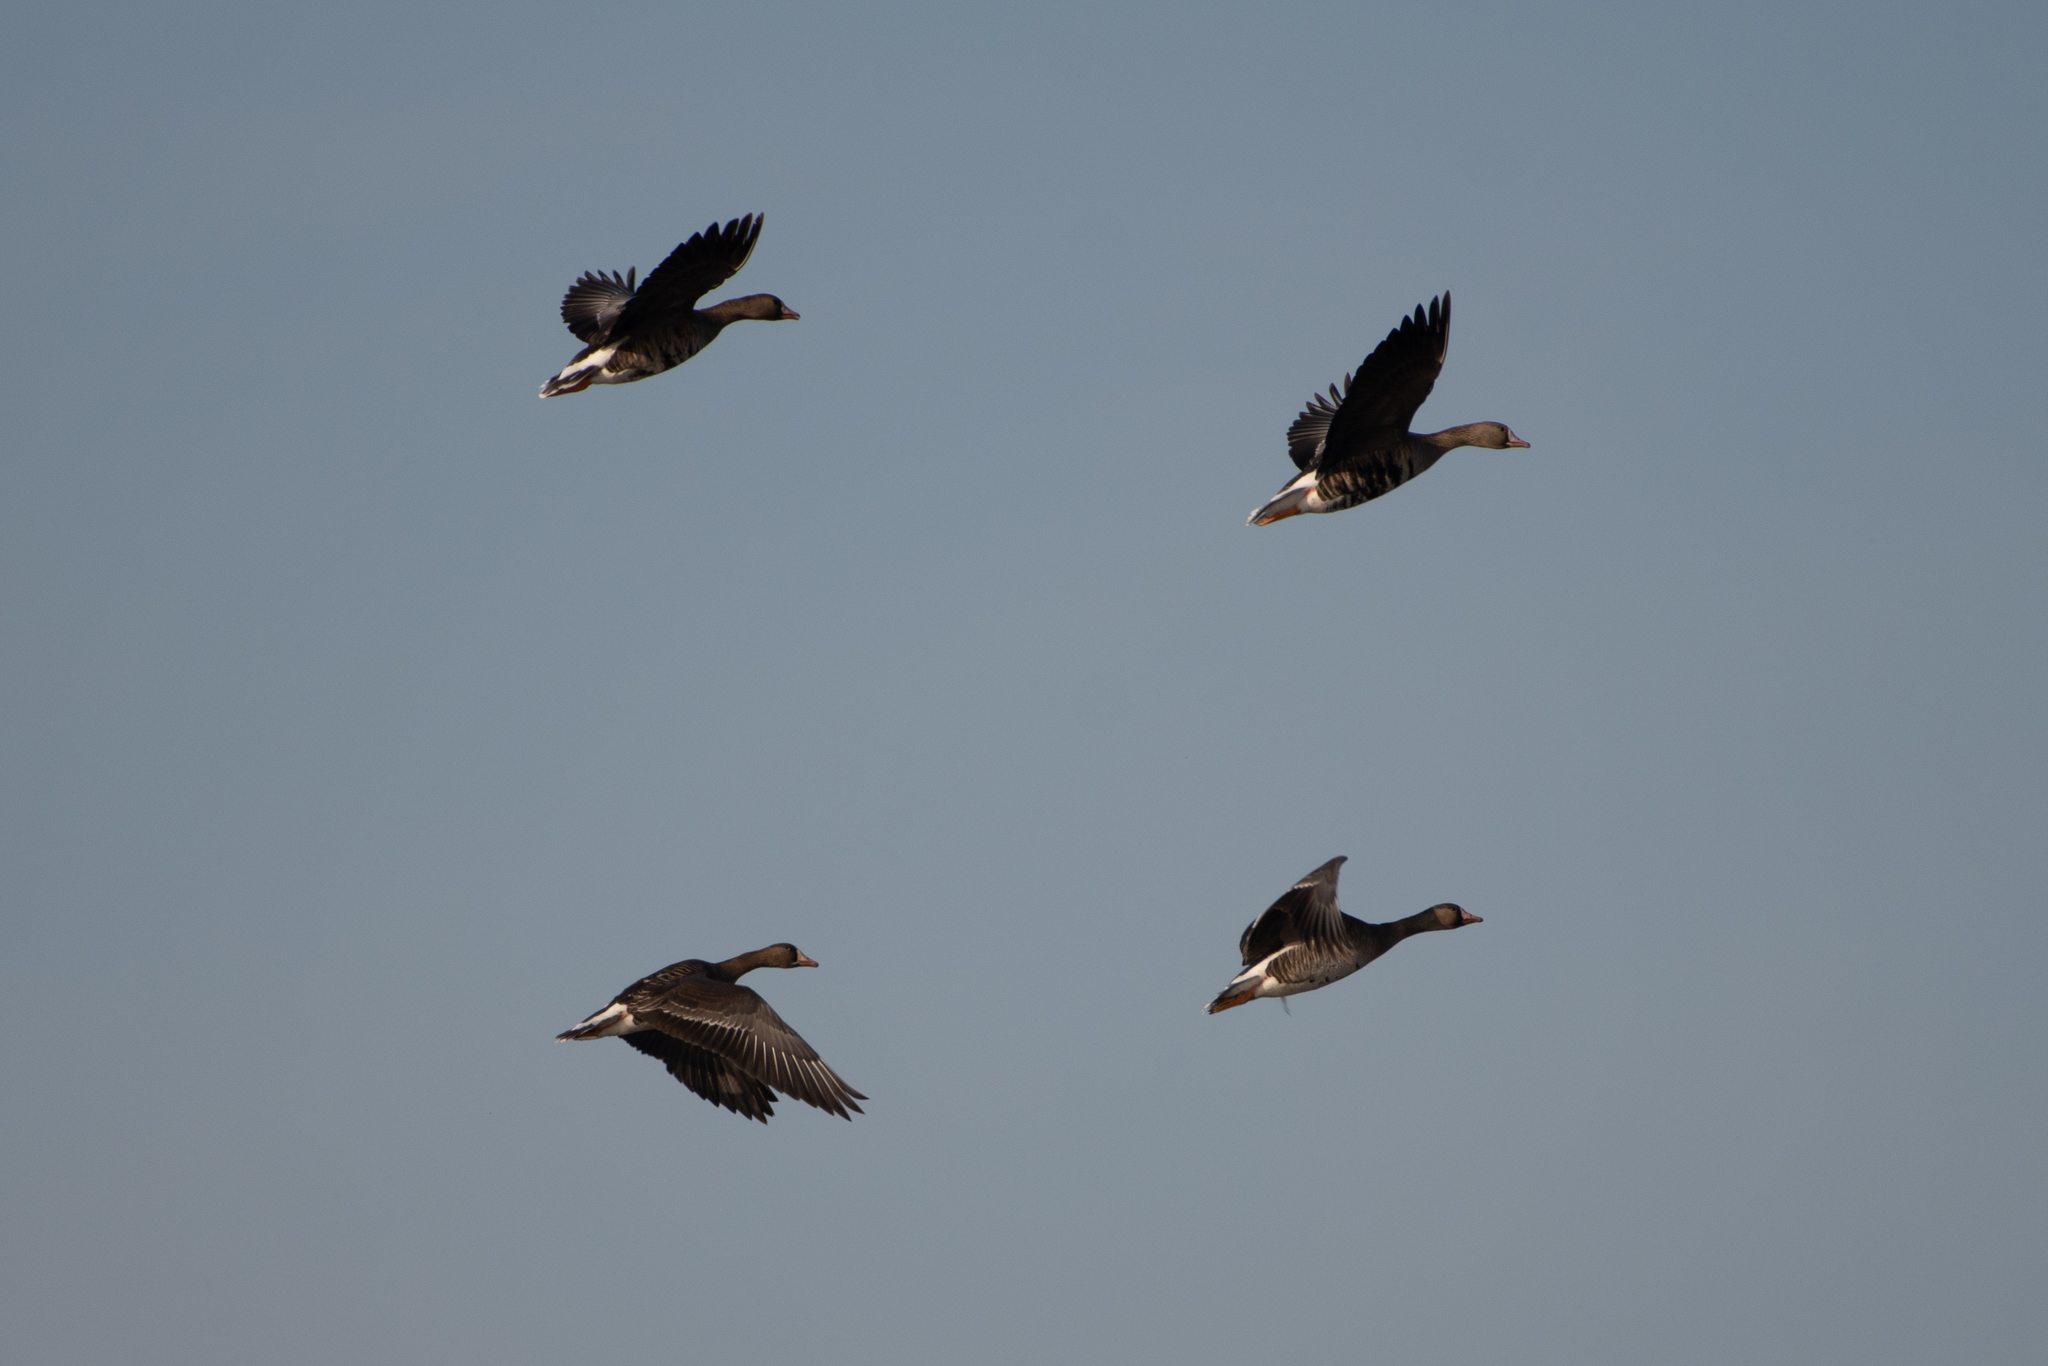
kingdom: Animalia
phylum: Chordata
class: Aves
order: Anseriformes
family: Anatidae
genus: Anser
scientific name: Anser albifrons
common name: Greater white-fronted goose
